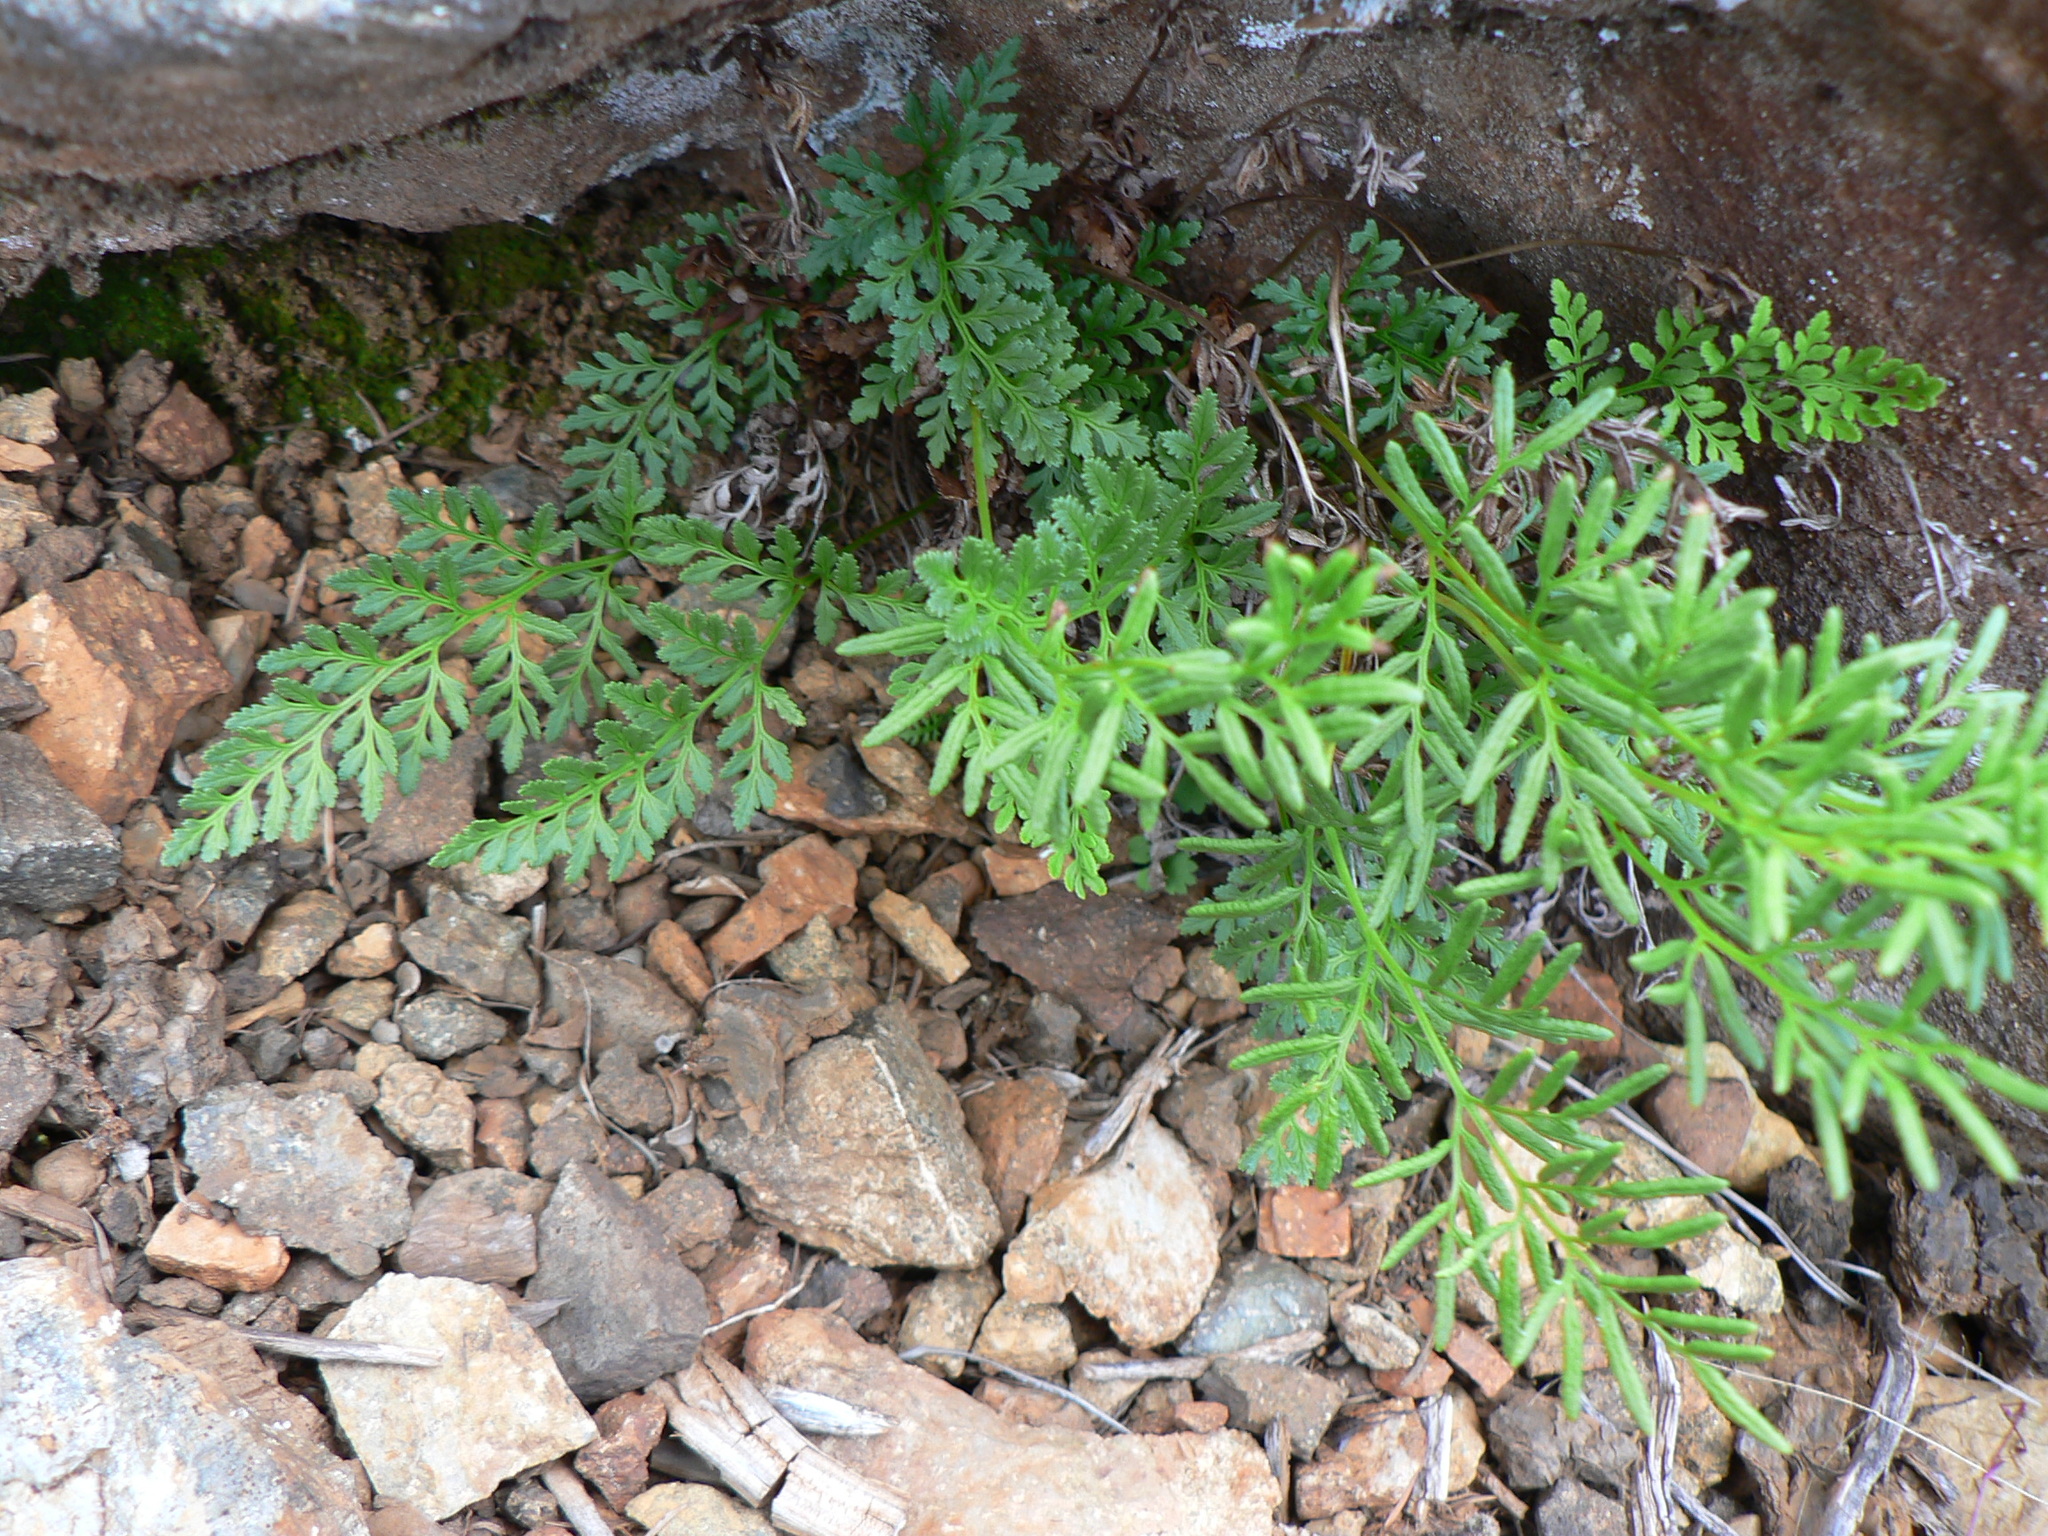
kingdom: Plantae
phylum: Tracheophyta
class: Polypodiopsida
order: Polypodiales
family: Pteridaceae
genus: Cryptogramma
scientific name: Cryptogramma acrostichoides
